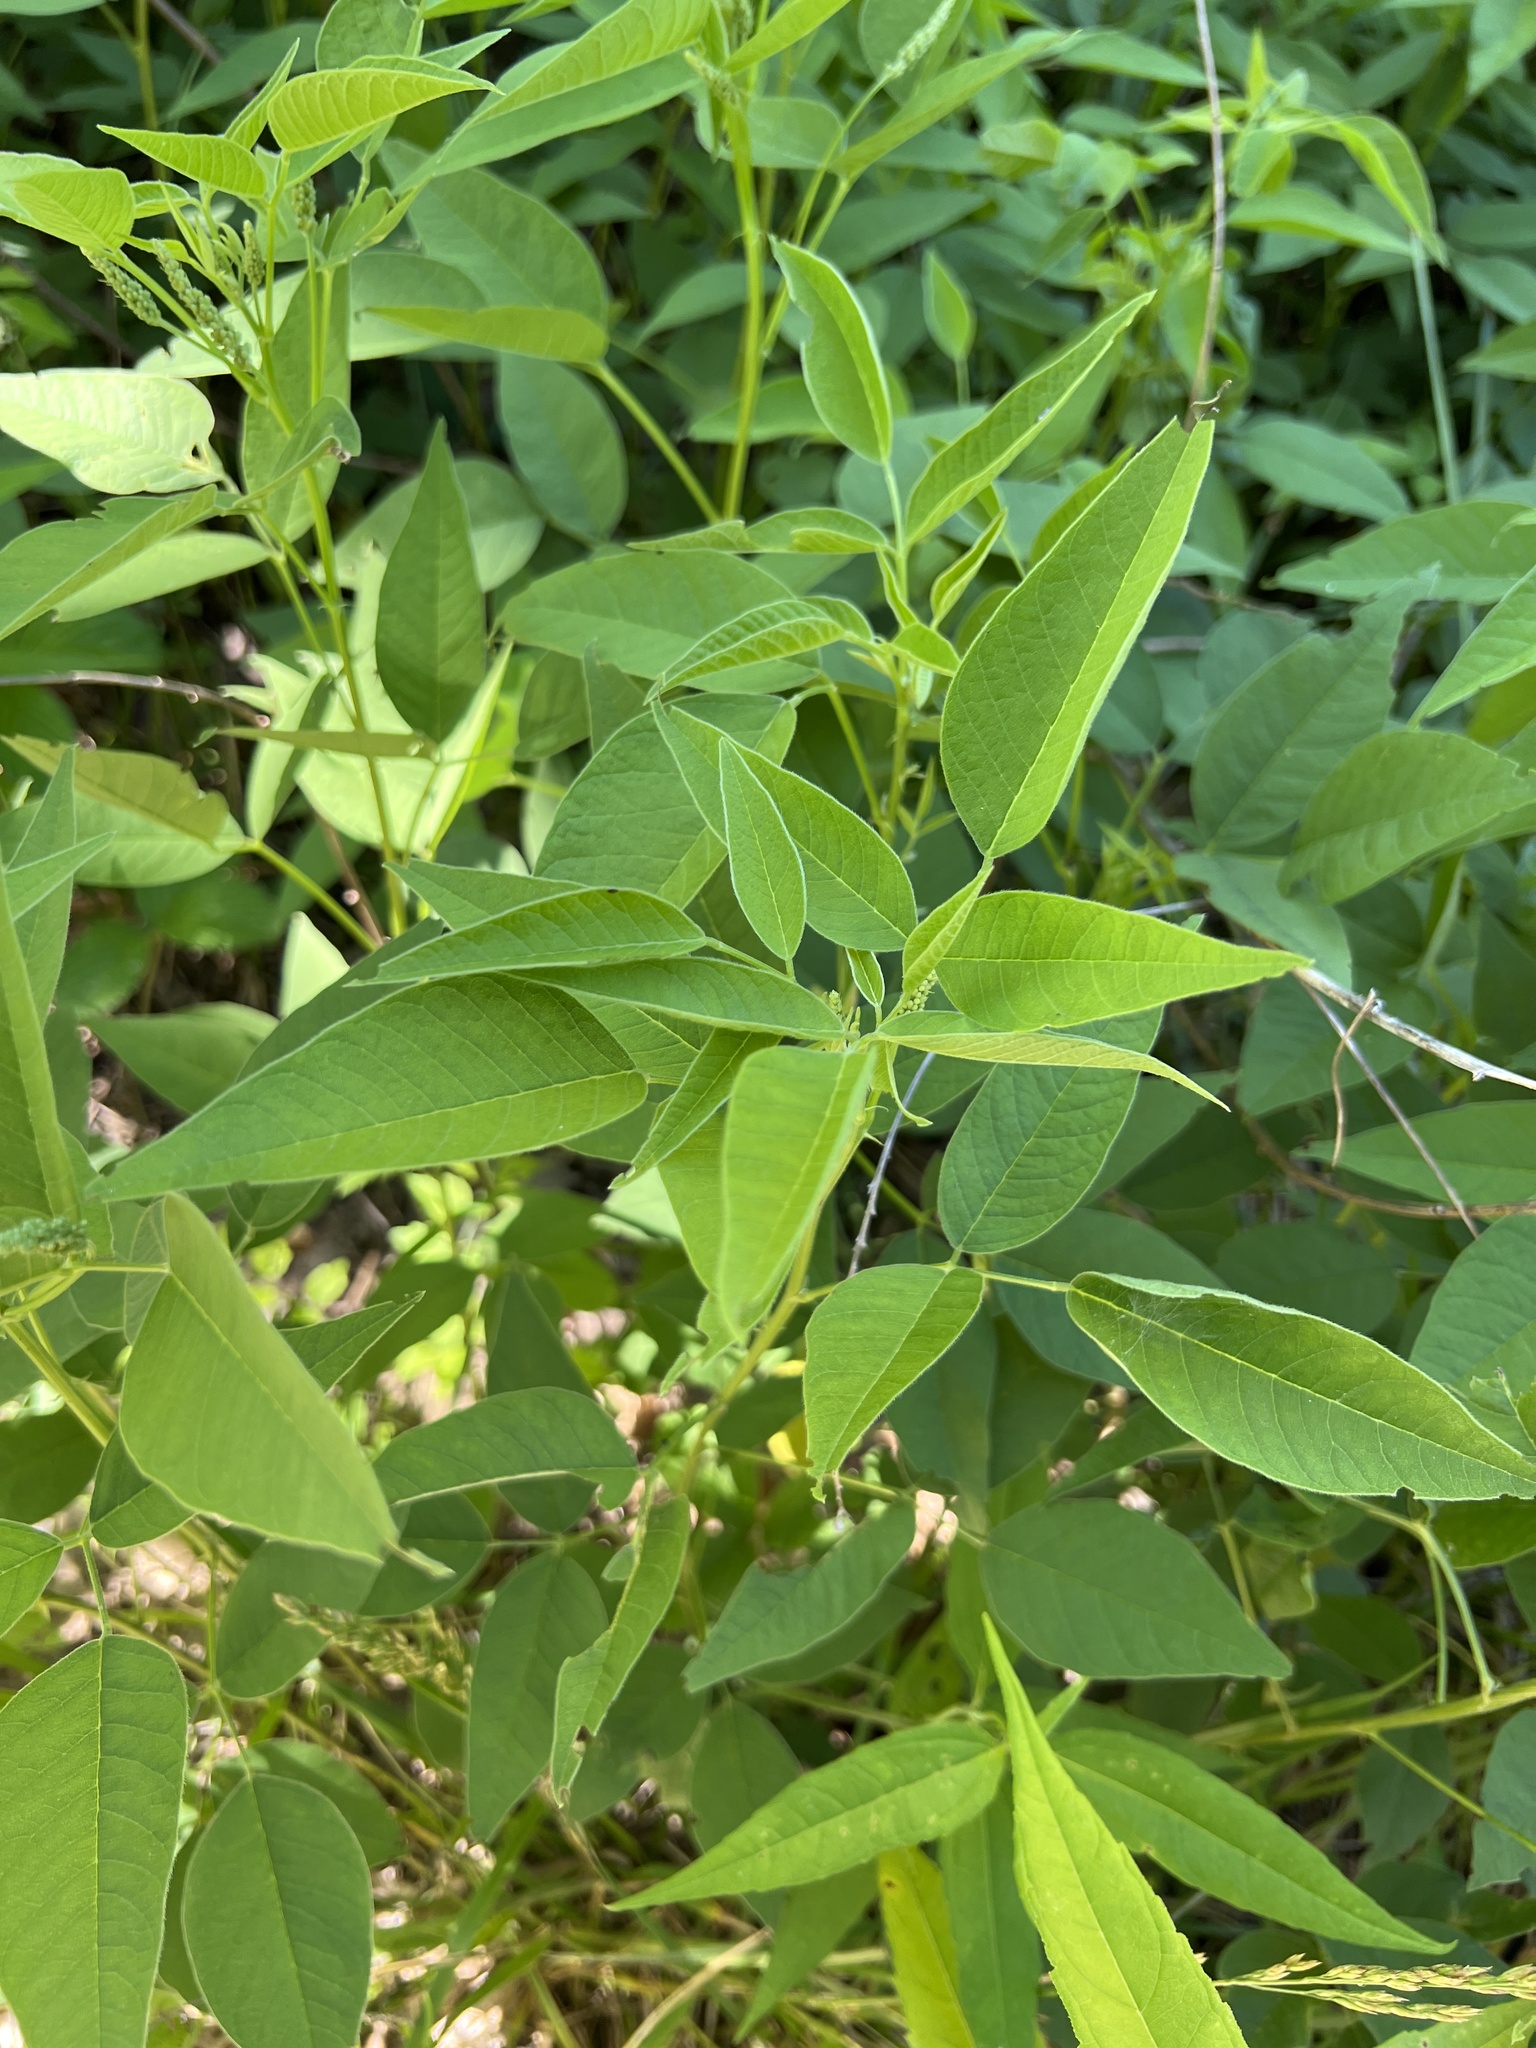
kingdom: Plantae
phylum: Tracheophyta
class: Magnoliopsida
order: Fabales
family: Fabaceae
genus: Orbexilum
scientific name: Orbexilum onobrychis
